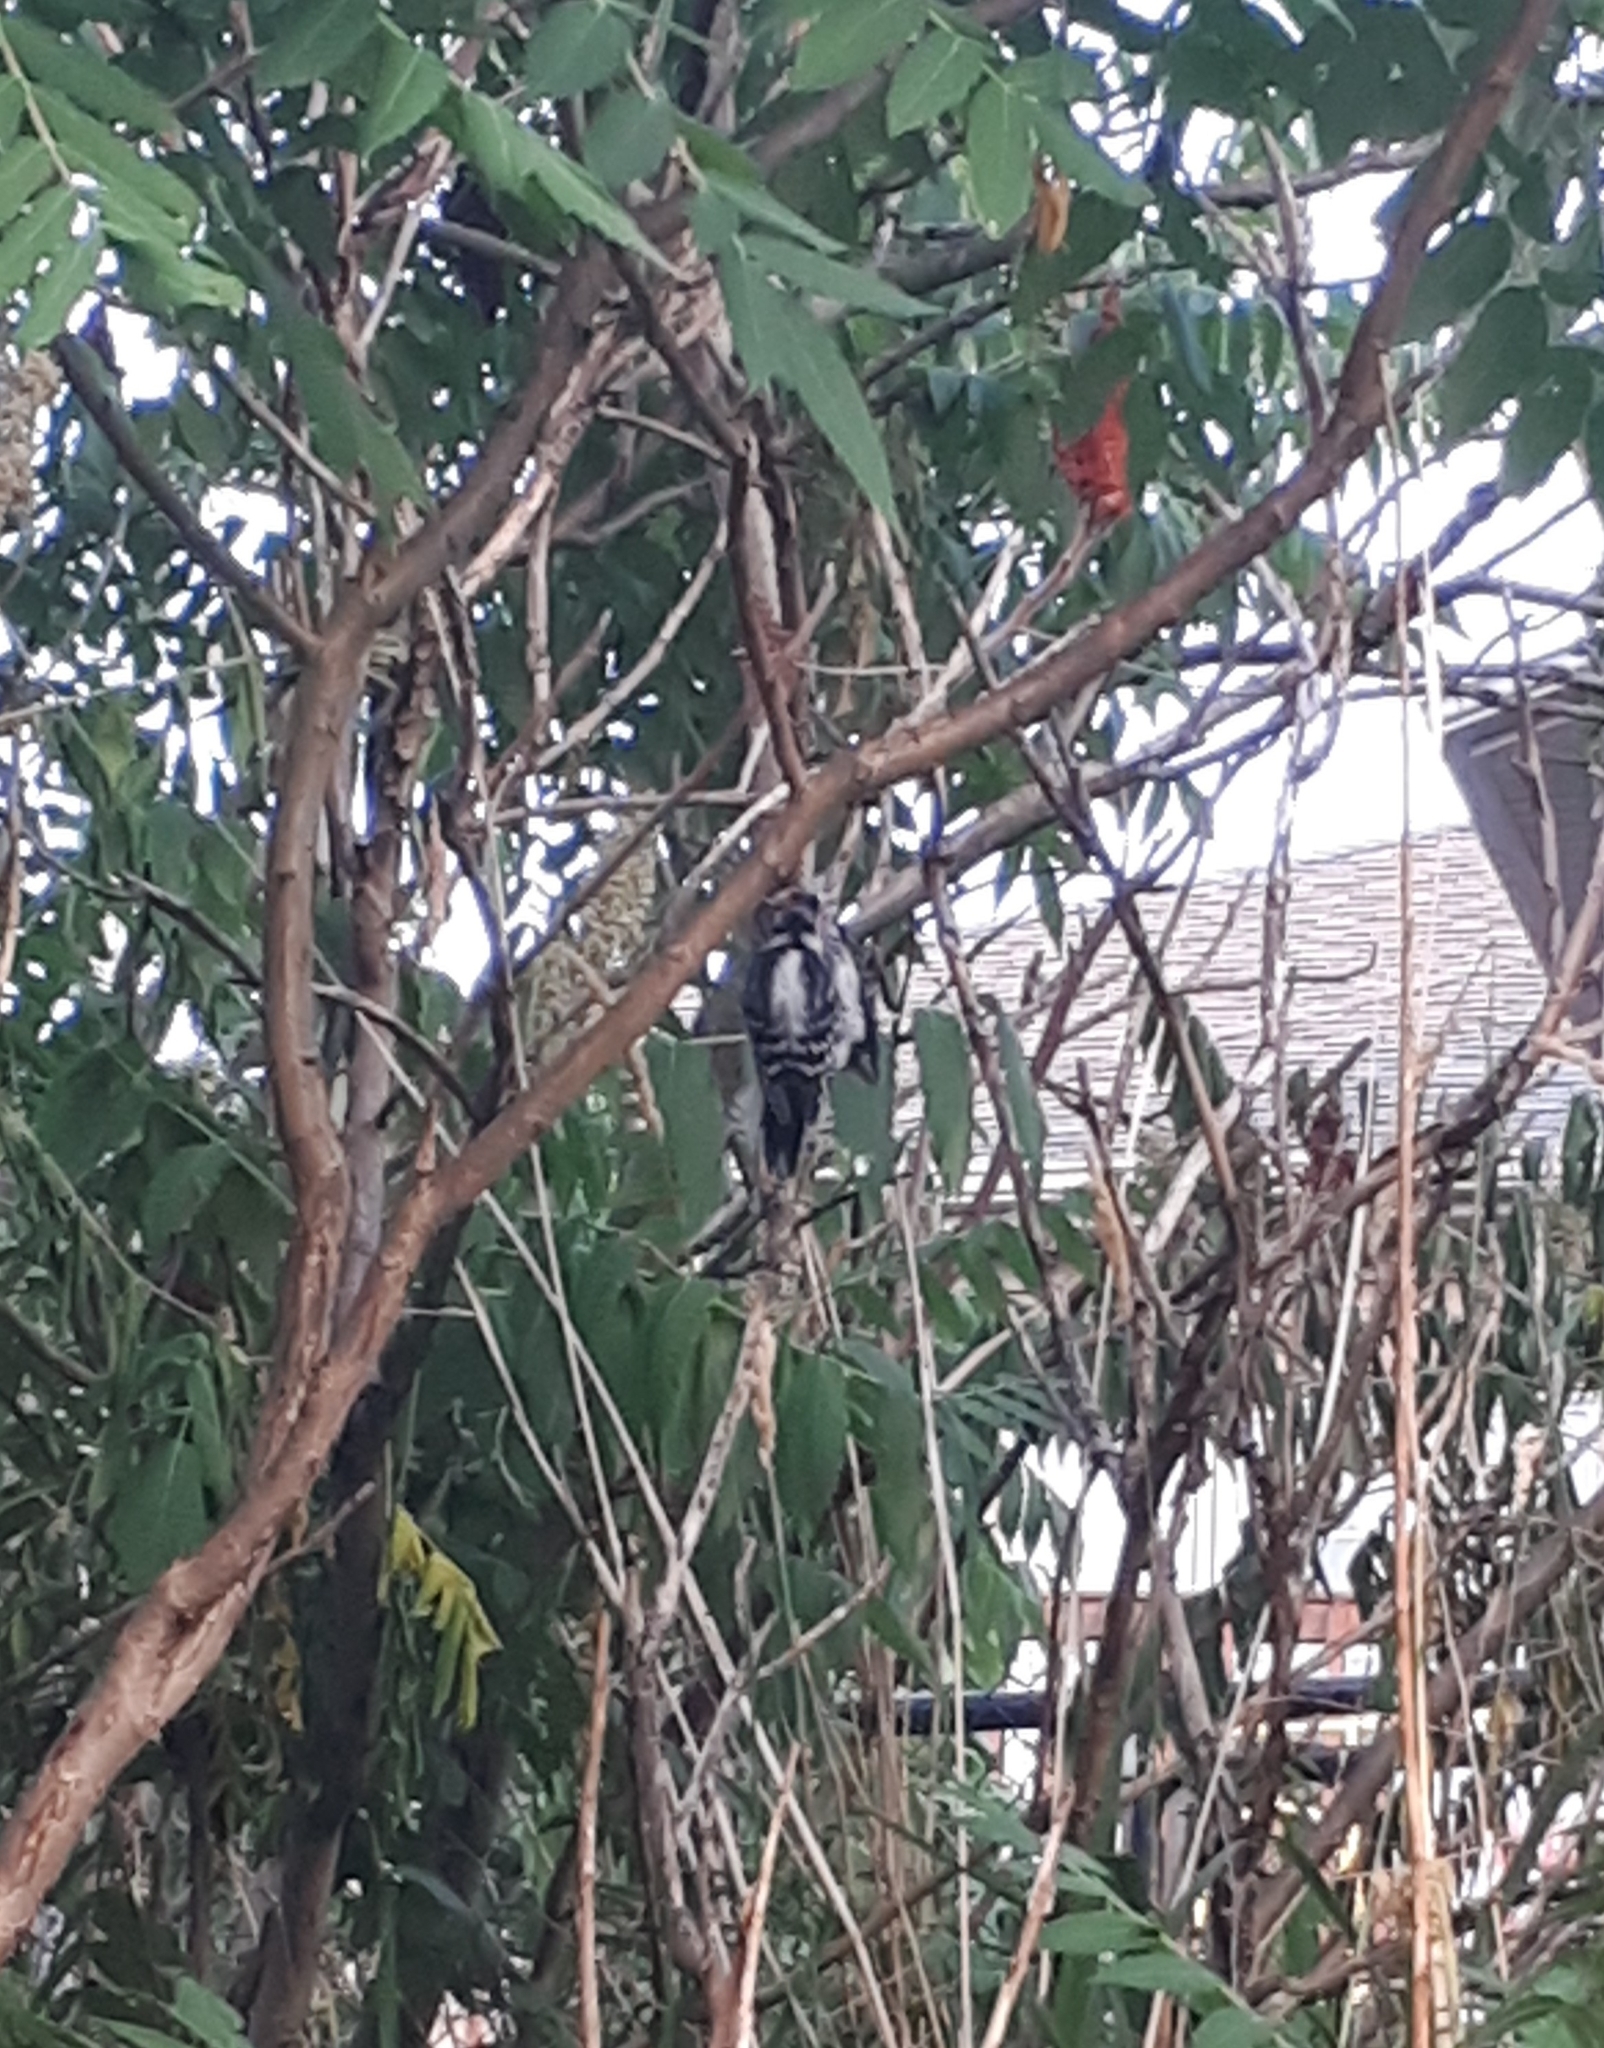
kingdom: Animalia
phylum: Chordata
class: Aves
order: Piciformes
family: Picidae
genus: Dryobates
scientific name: Dryobates pubescens
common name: Downy woodpecker
